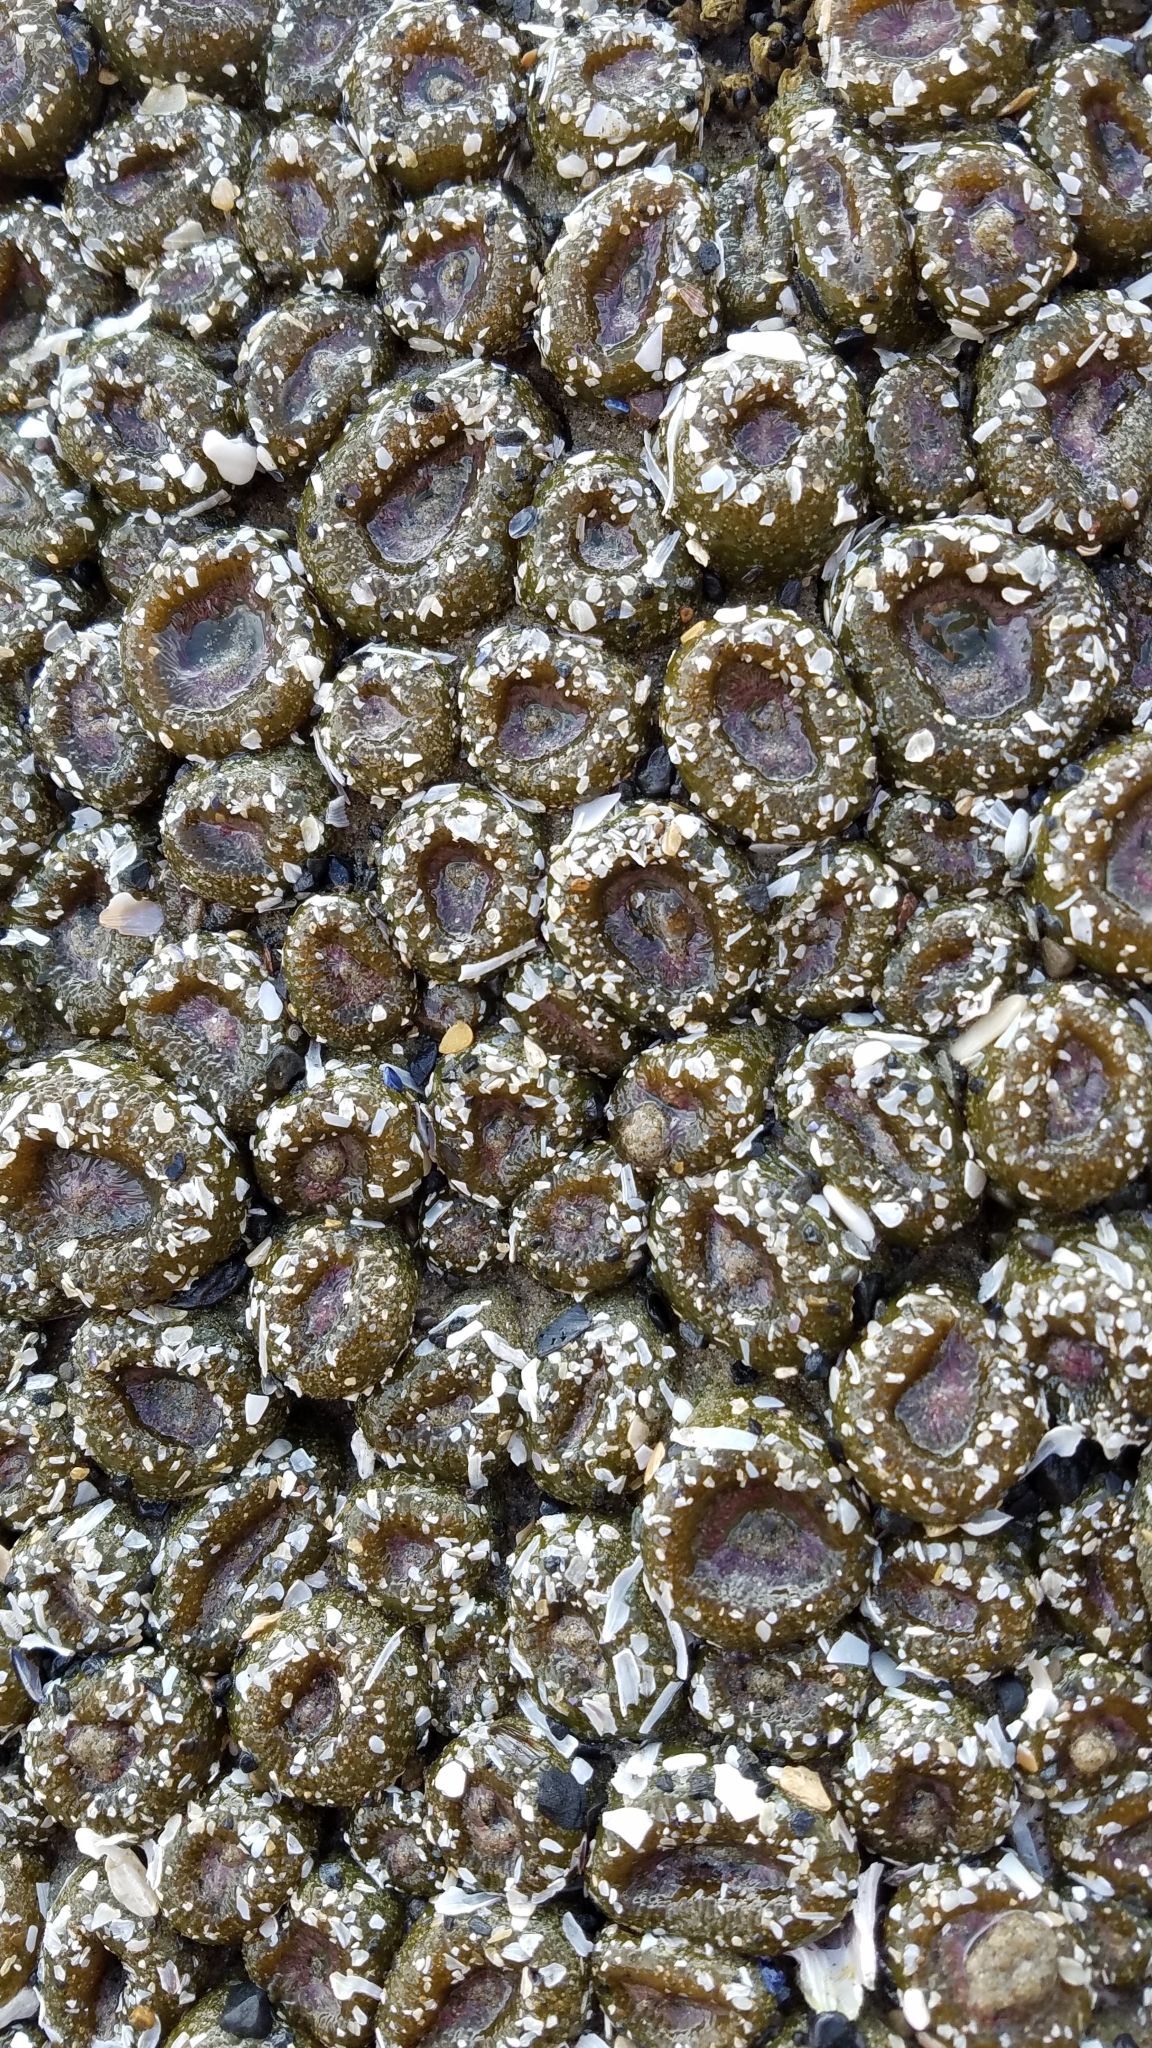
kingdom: Animalia
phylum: Cnidaria
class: Anthozoa
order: Actiniaria
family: Actiniidae
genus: Anthopleura
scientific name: Anthopleura elegantissima
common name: Clonal anemone
